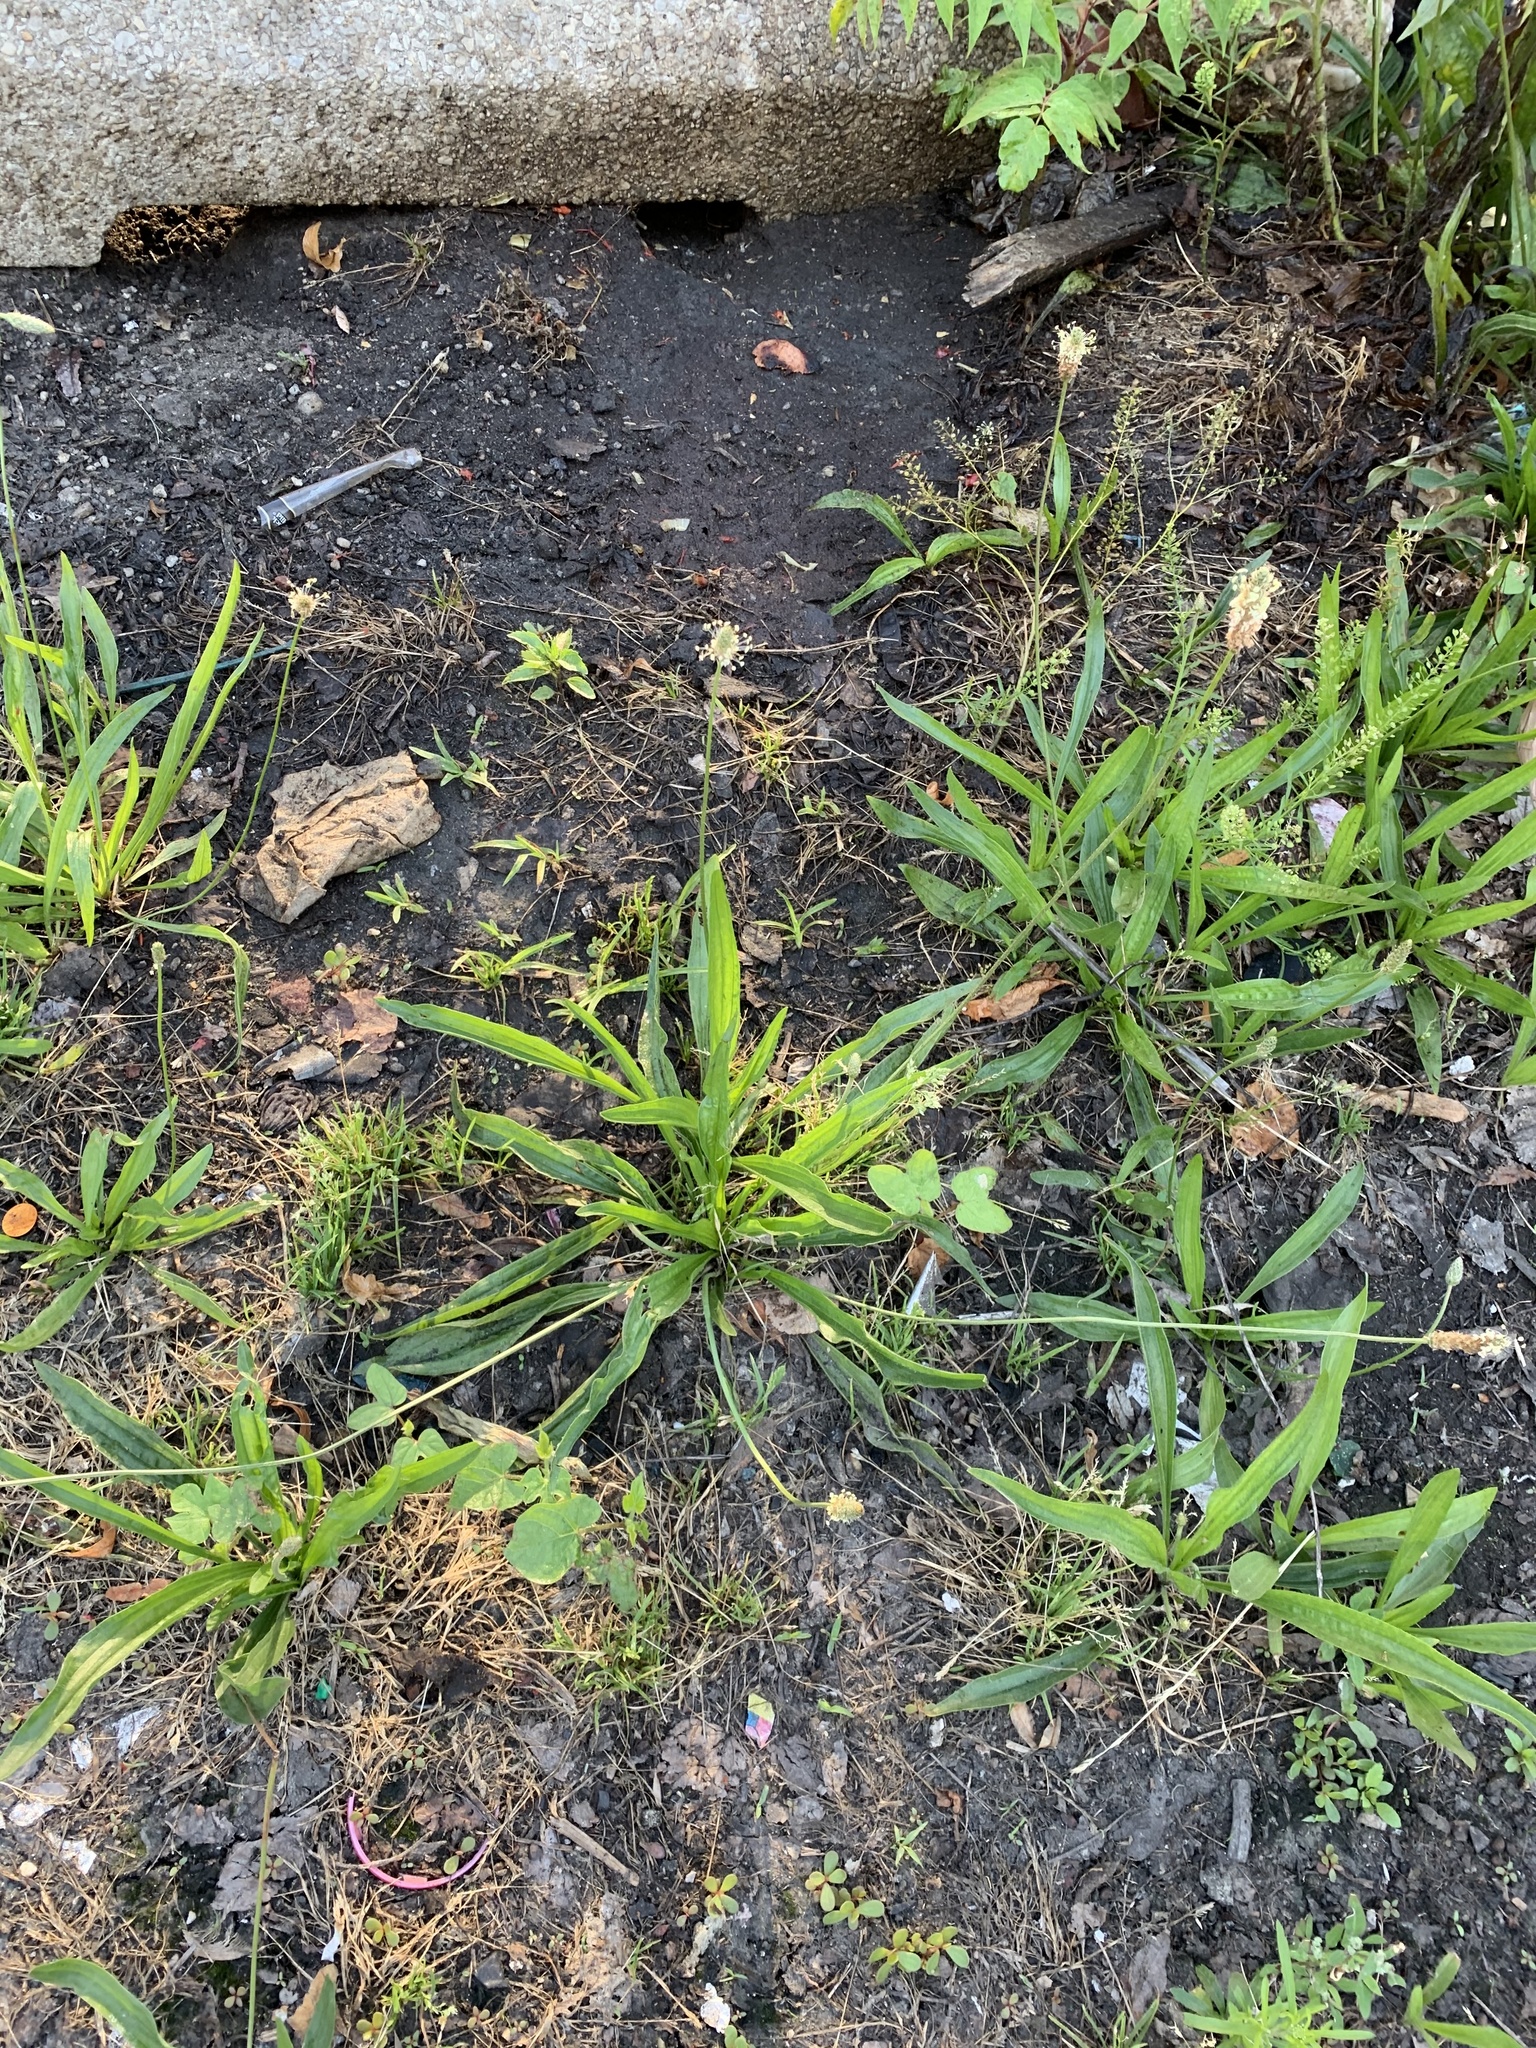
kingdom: Plantae
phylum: Tracheophyta
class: Magnoliopsida
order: Lamiales
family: Plantaginaceae
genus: Plantago
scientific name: Plantago lanceolata
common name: Ribwort plantain
